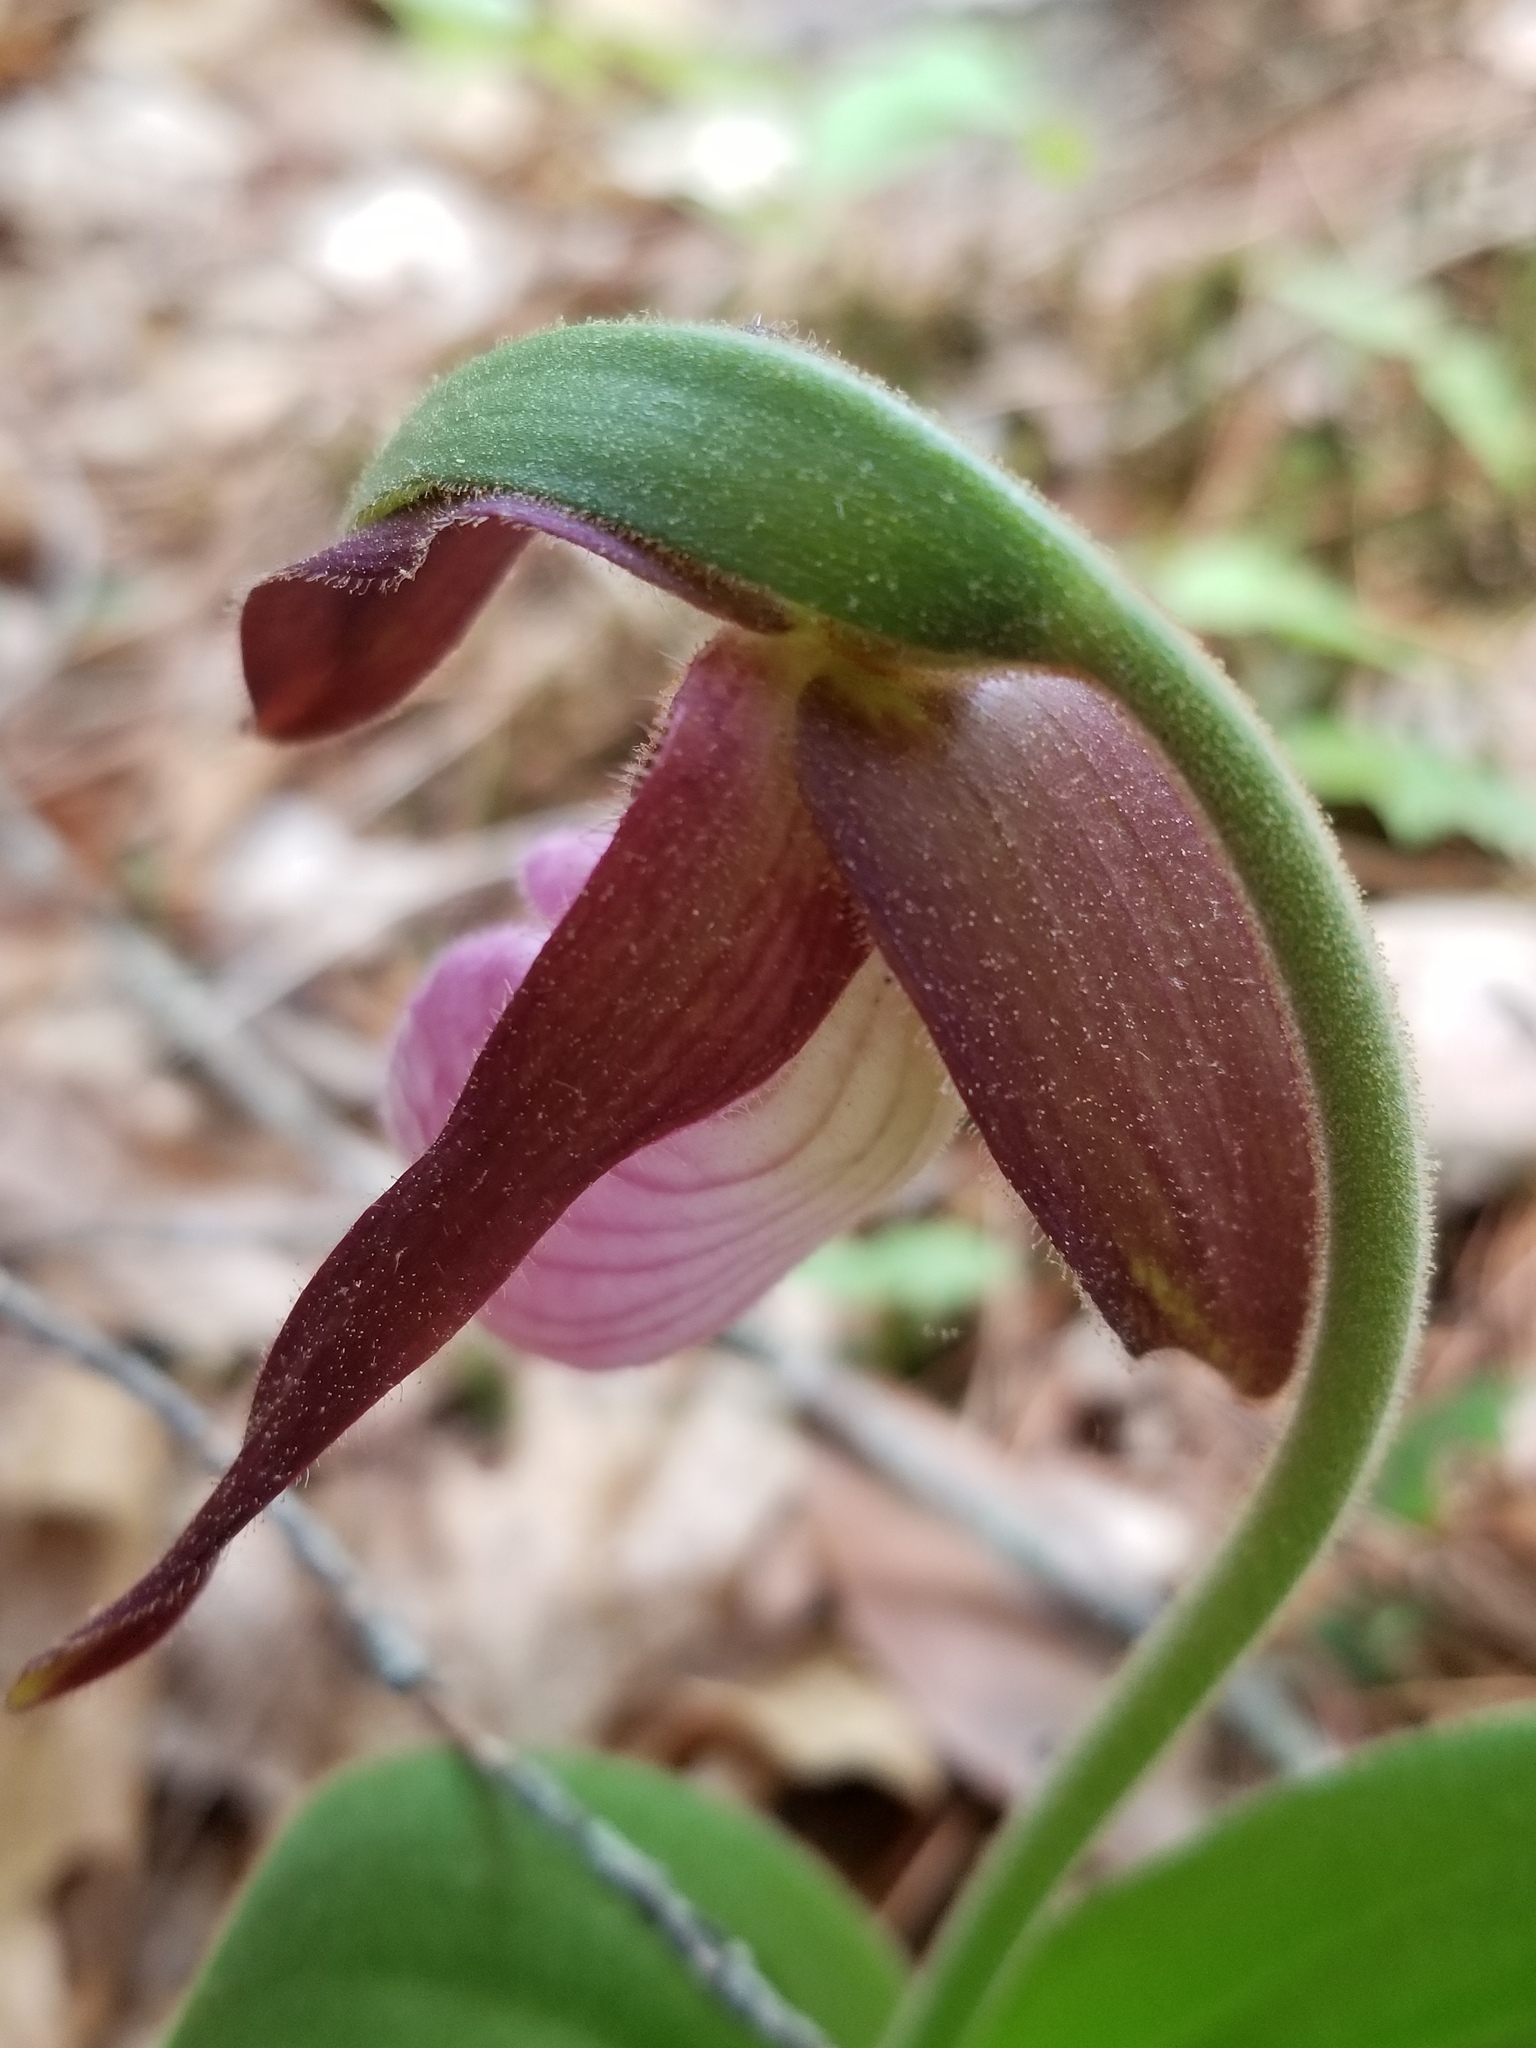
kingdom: Plantae
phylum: Tracheophyta
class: Liliopsida
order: Asparagales
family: Orchidaceae
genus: Cypripedium
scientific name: Cypripedium acaule
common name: Pink lady's-slipper
